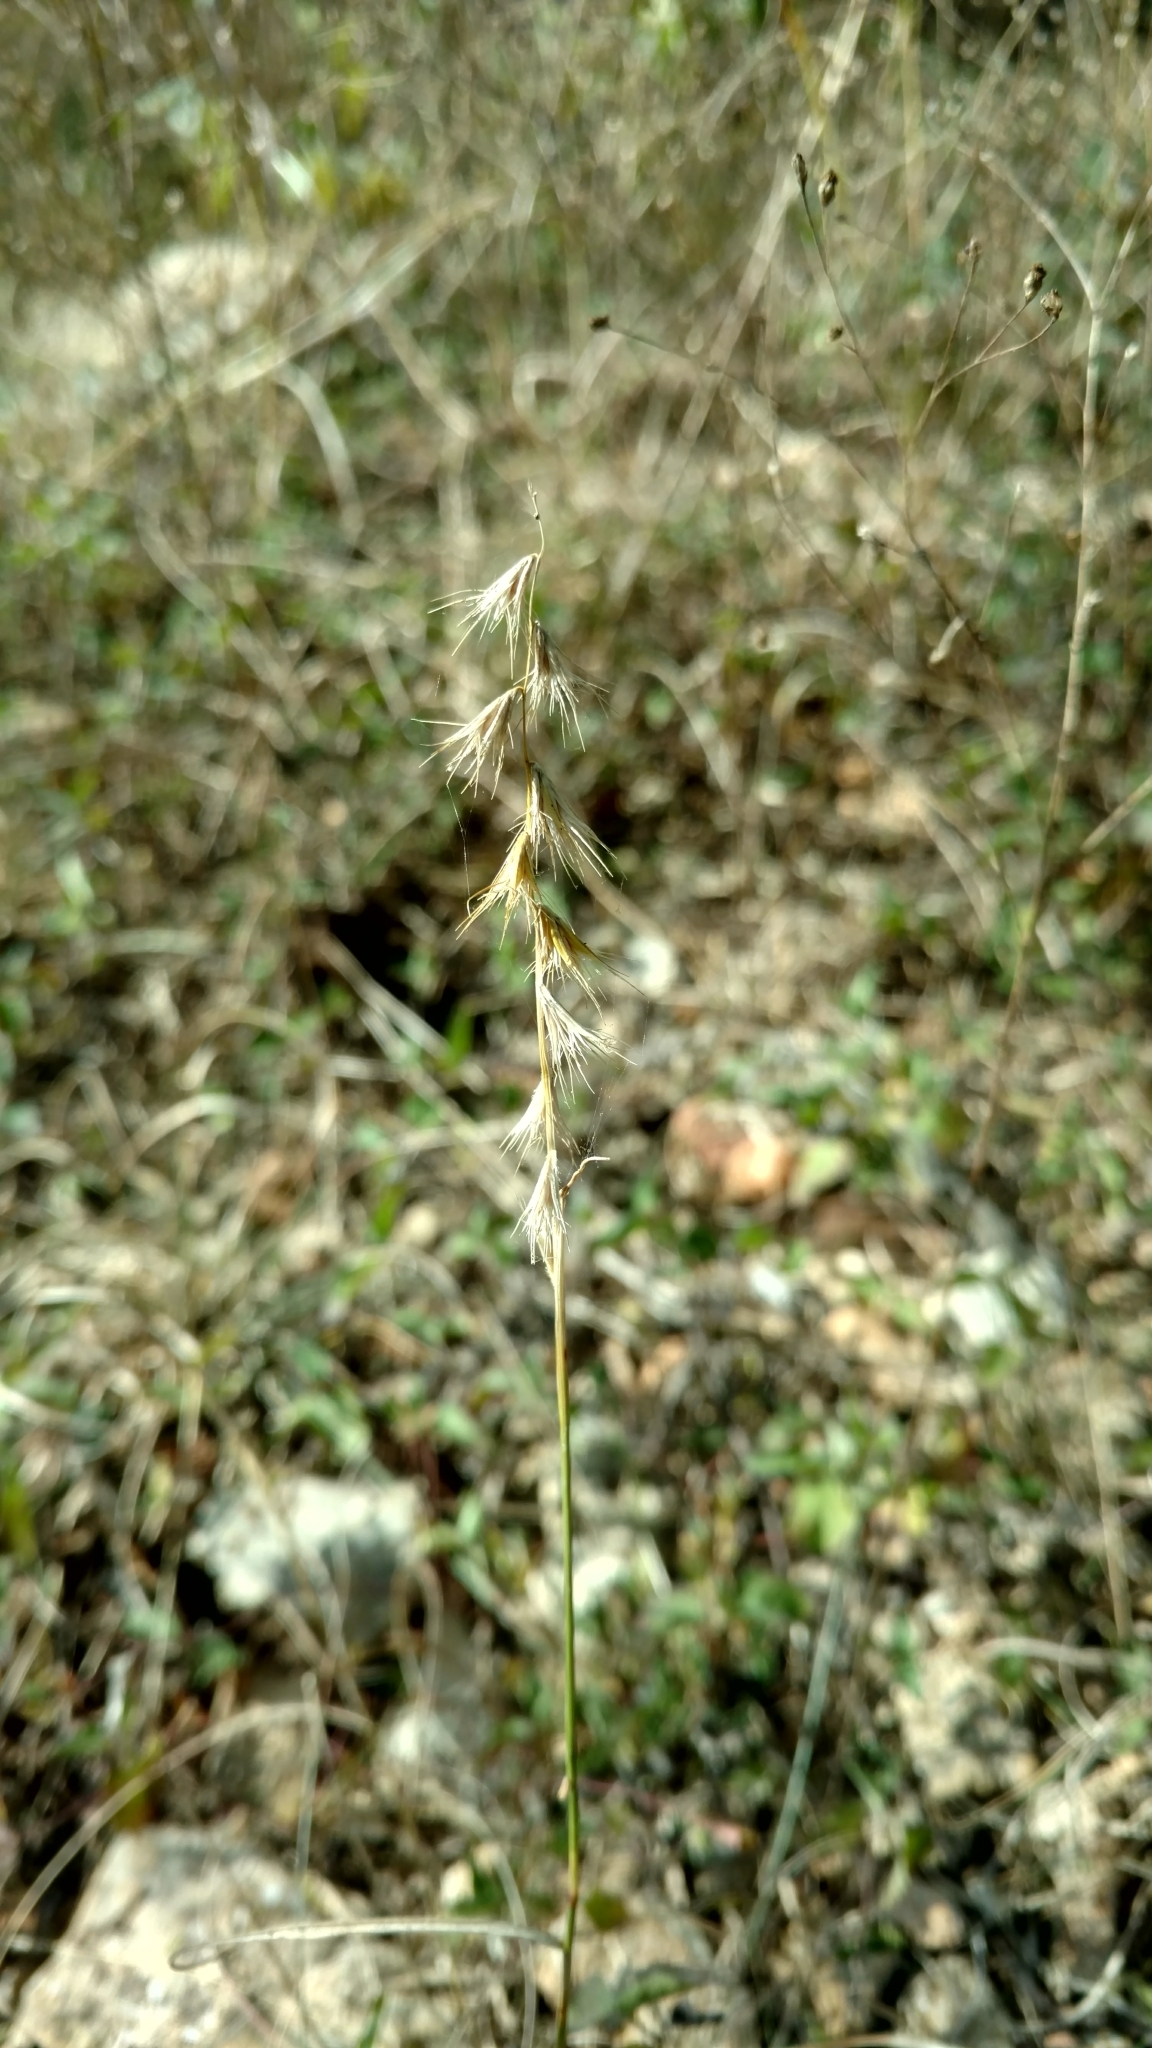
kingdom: Plantae
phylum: Tracheophyta
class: Liliopsida
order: Poales
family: Poaceae
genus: Bouteloua
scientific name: Bouteloua rigidiseta
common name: Texas grama
